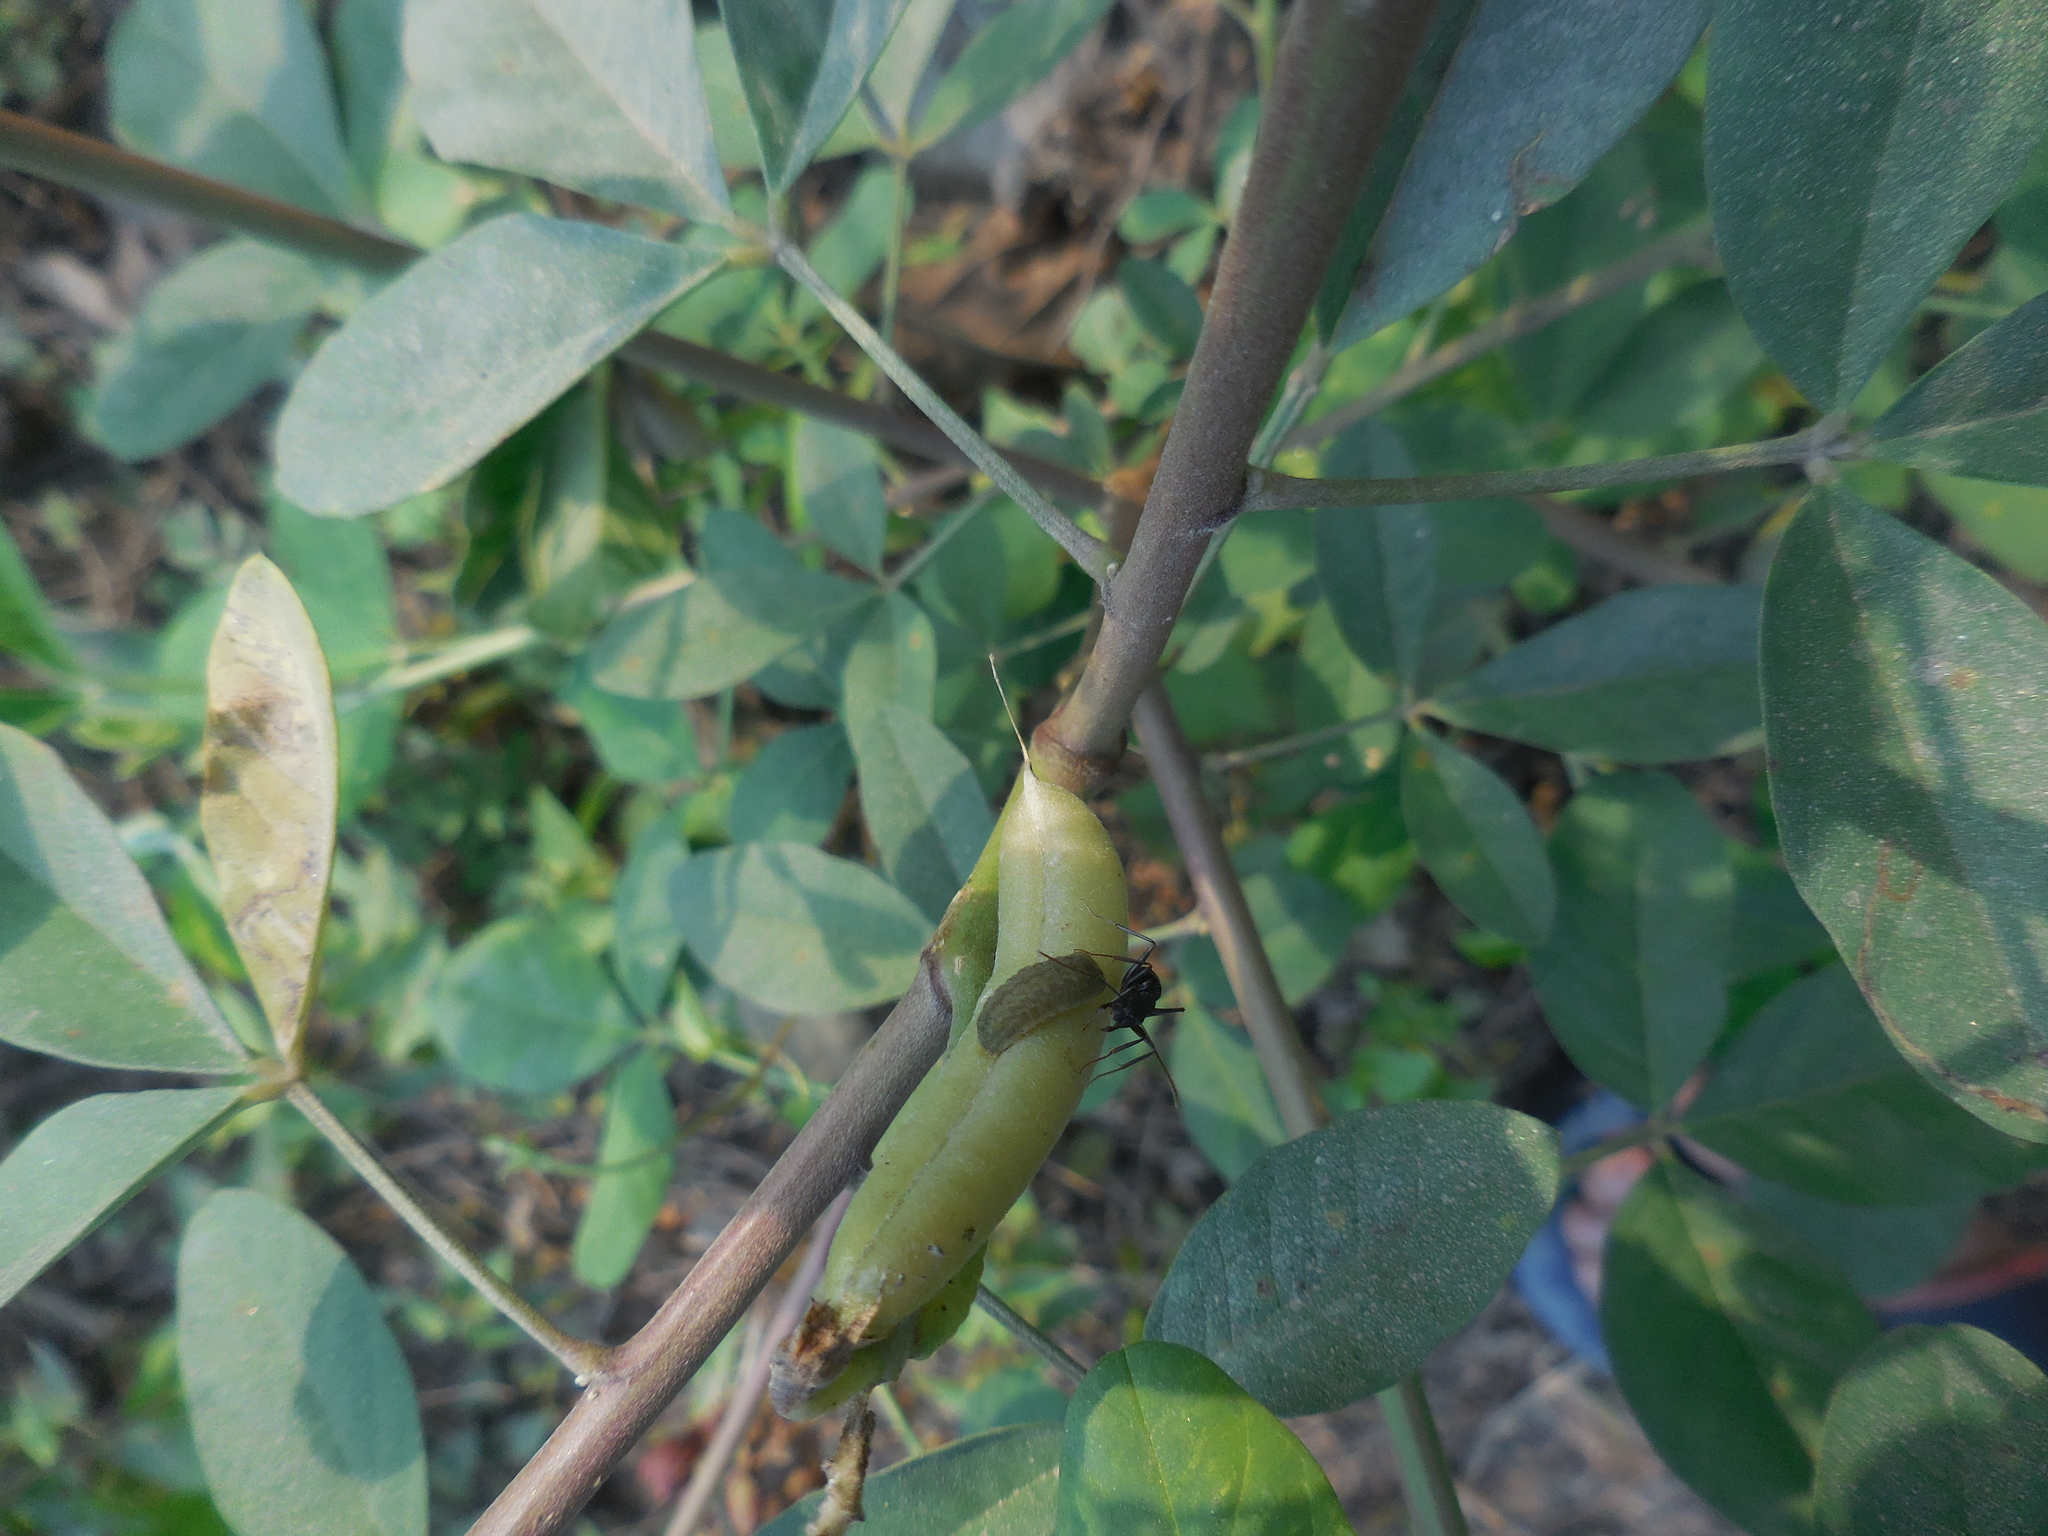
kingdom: Plantae
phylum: Tracheophyta
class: Magnoliopsida
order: Fabales
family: Fabaceae
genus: Crotalaria
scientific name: Crotalaria pallida
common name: Smooth rattlebox
